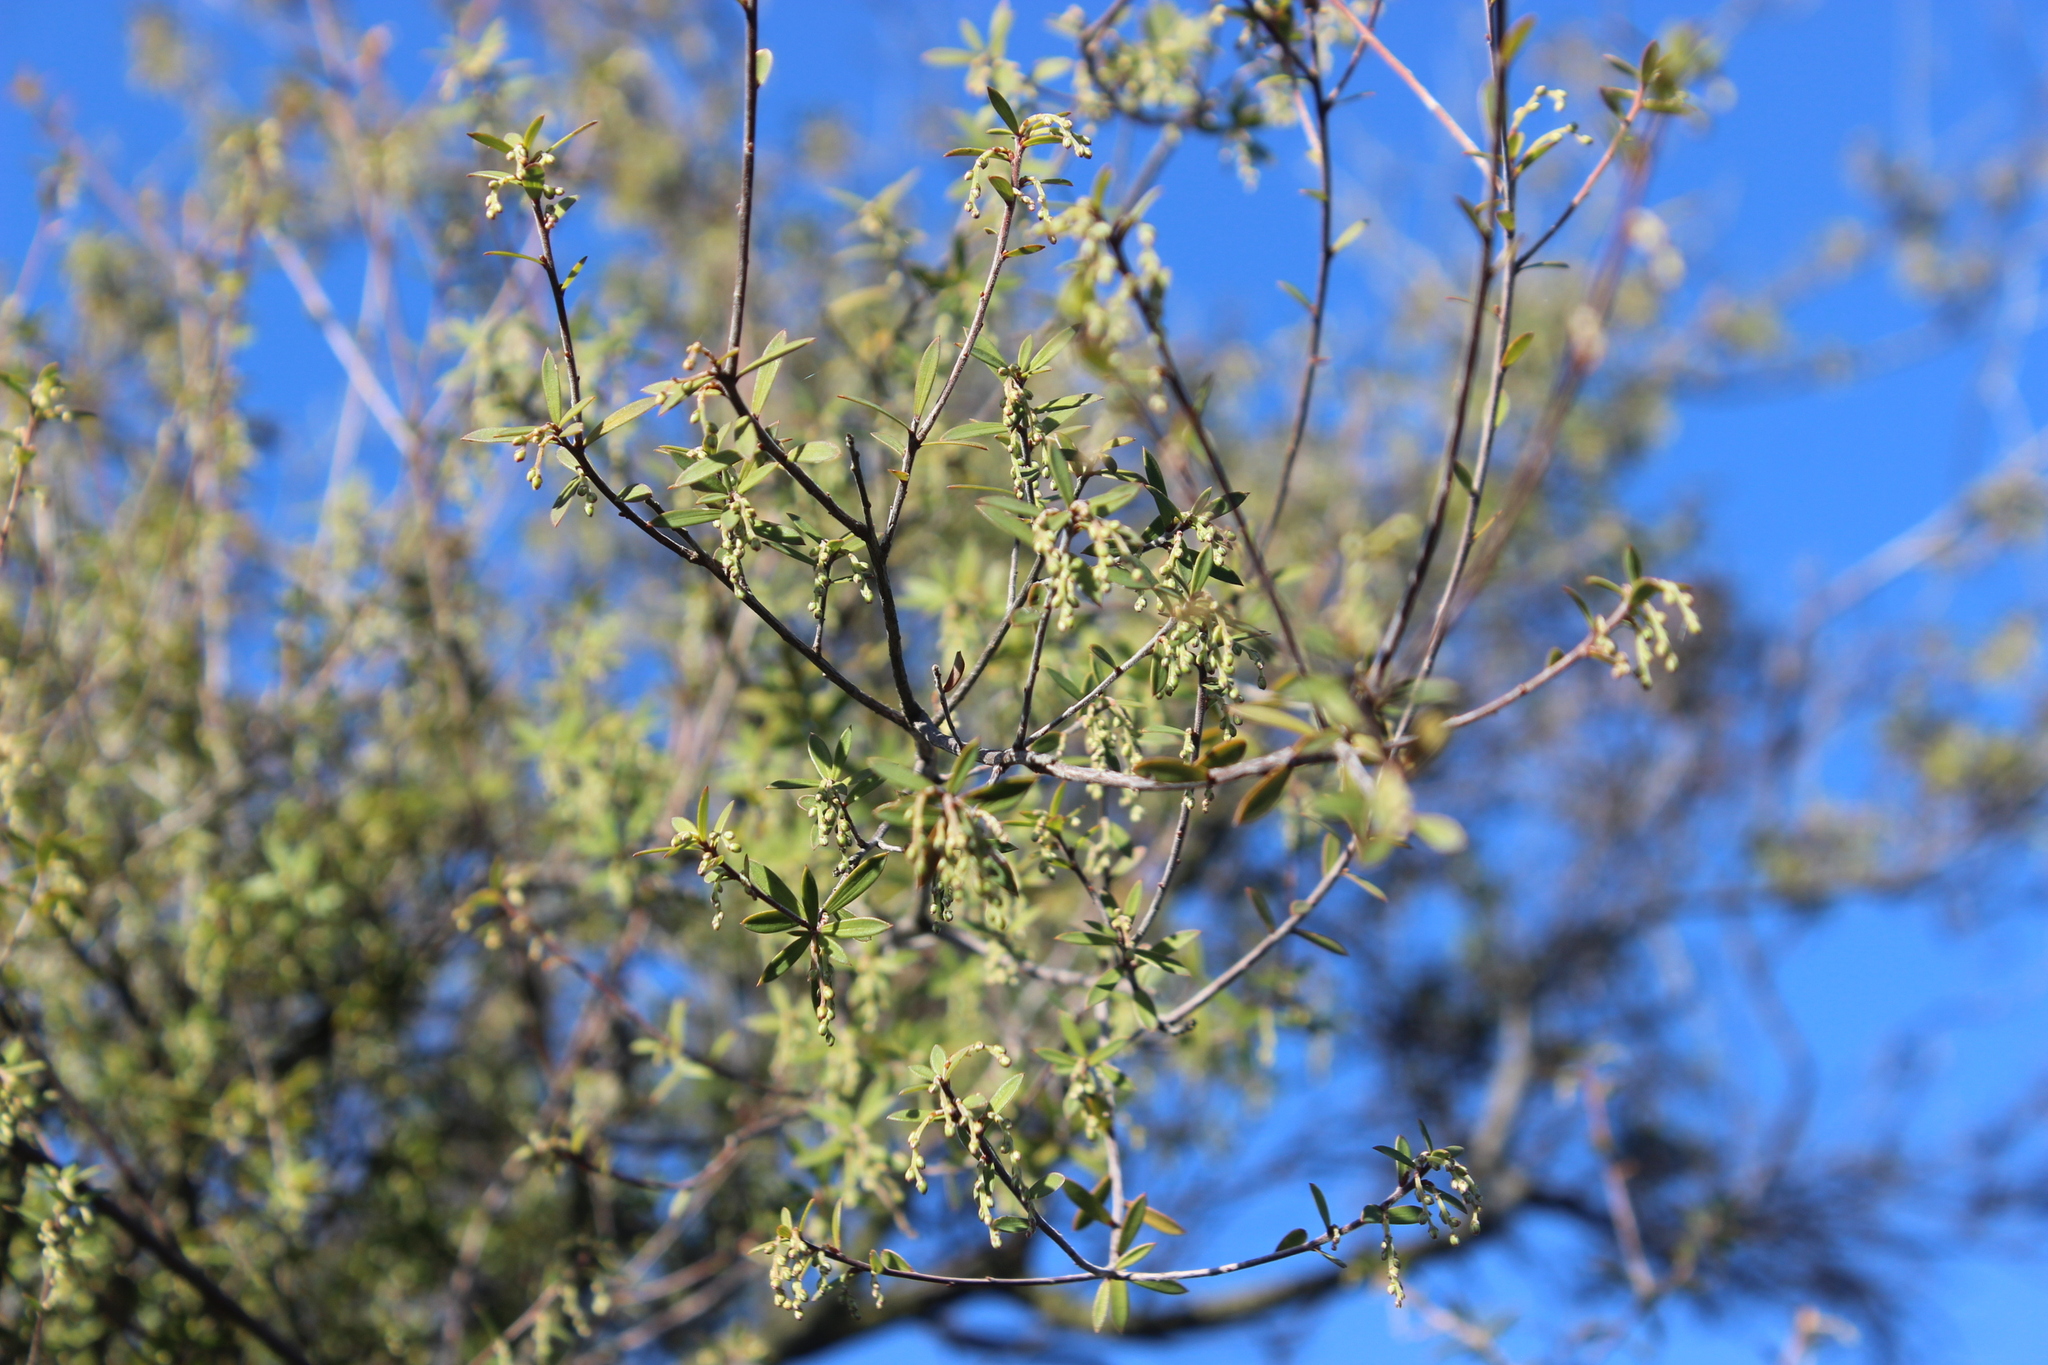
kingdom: Plantae
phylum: Tracheophyta
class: Magnoliopsida
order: Ericales
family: Ericaceae
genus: Leucopogon
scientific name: Leucopogon fasciculatus
